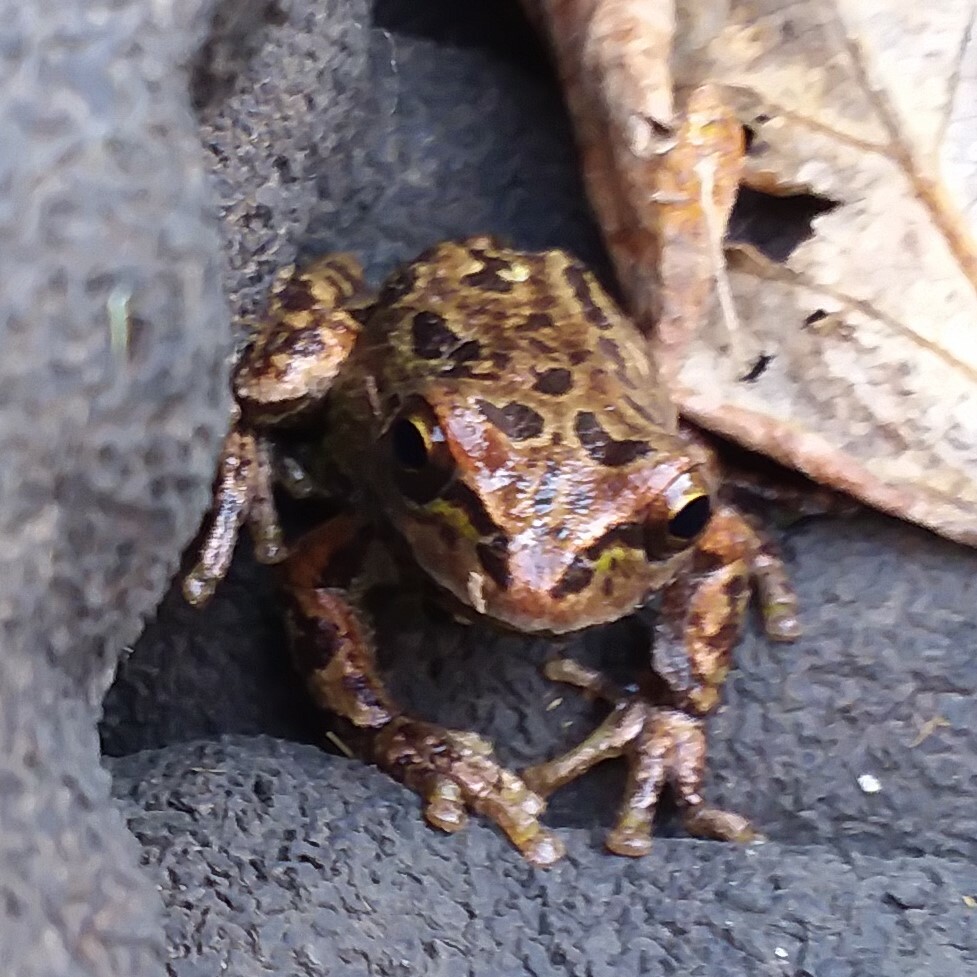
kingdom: Animalia
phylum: Chordata
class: Amphibia
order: Anura
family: Hylidae
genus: Pseudacris
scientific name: Pseudacris regilla
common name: Pacific chorus frog
